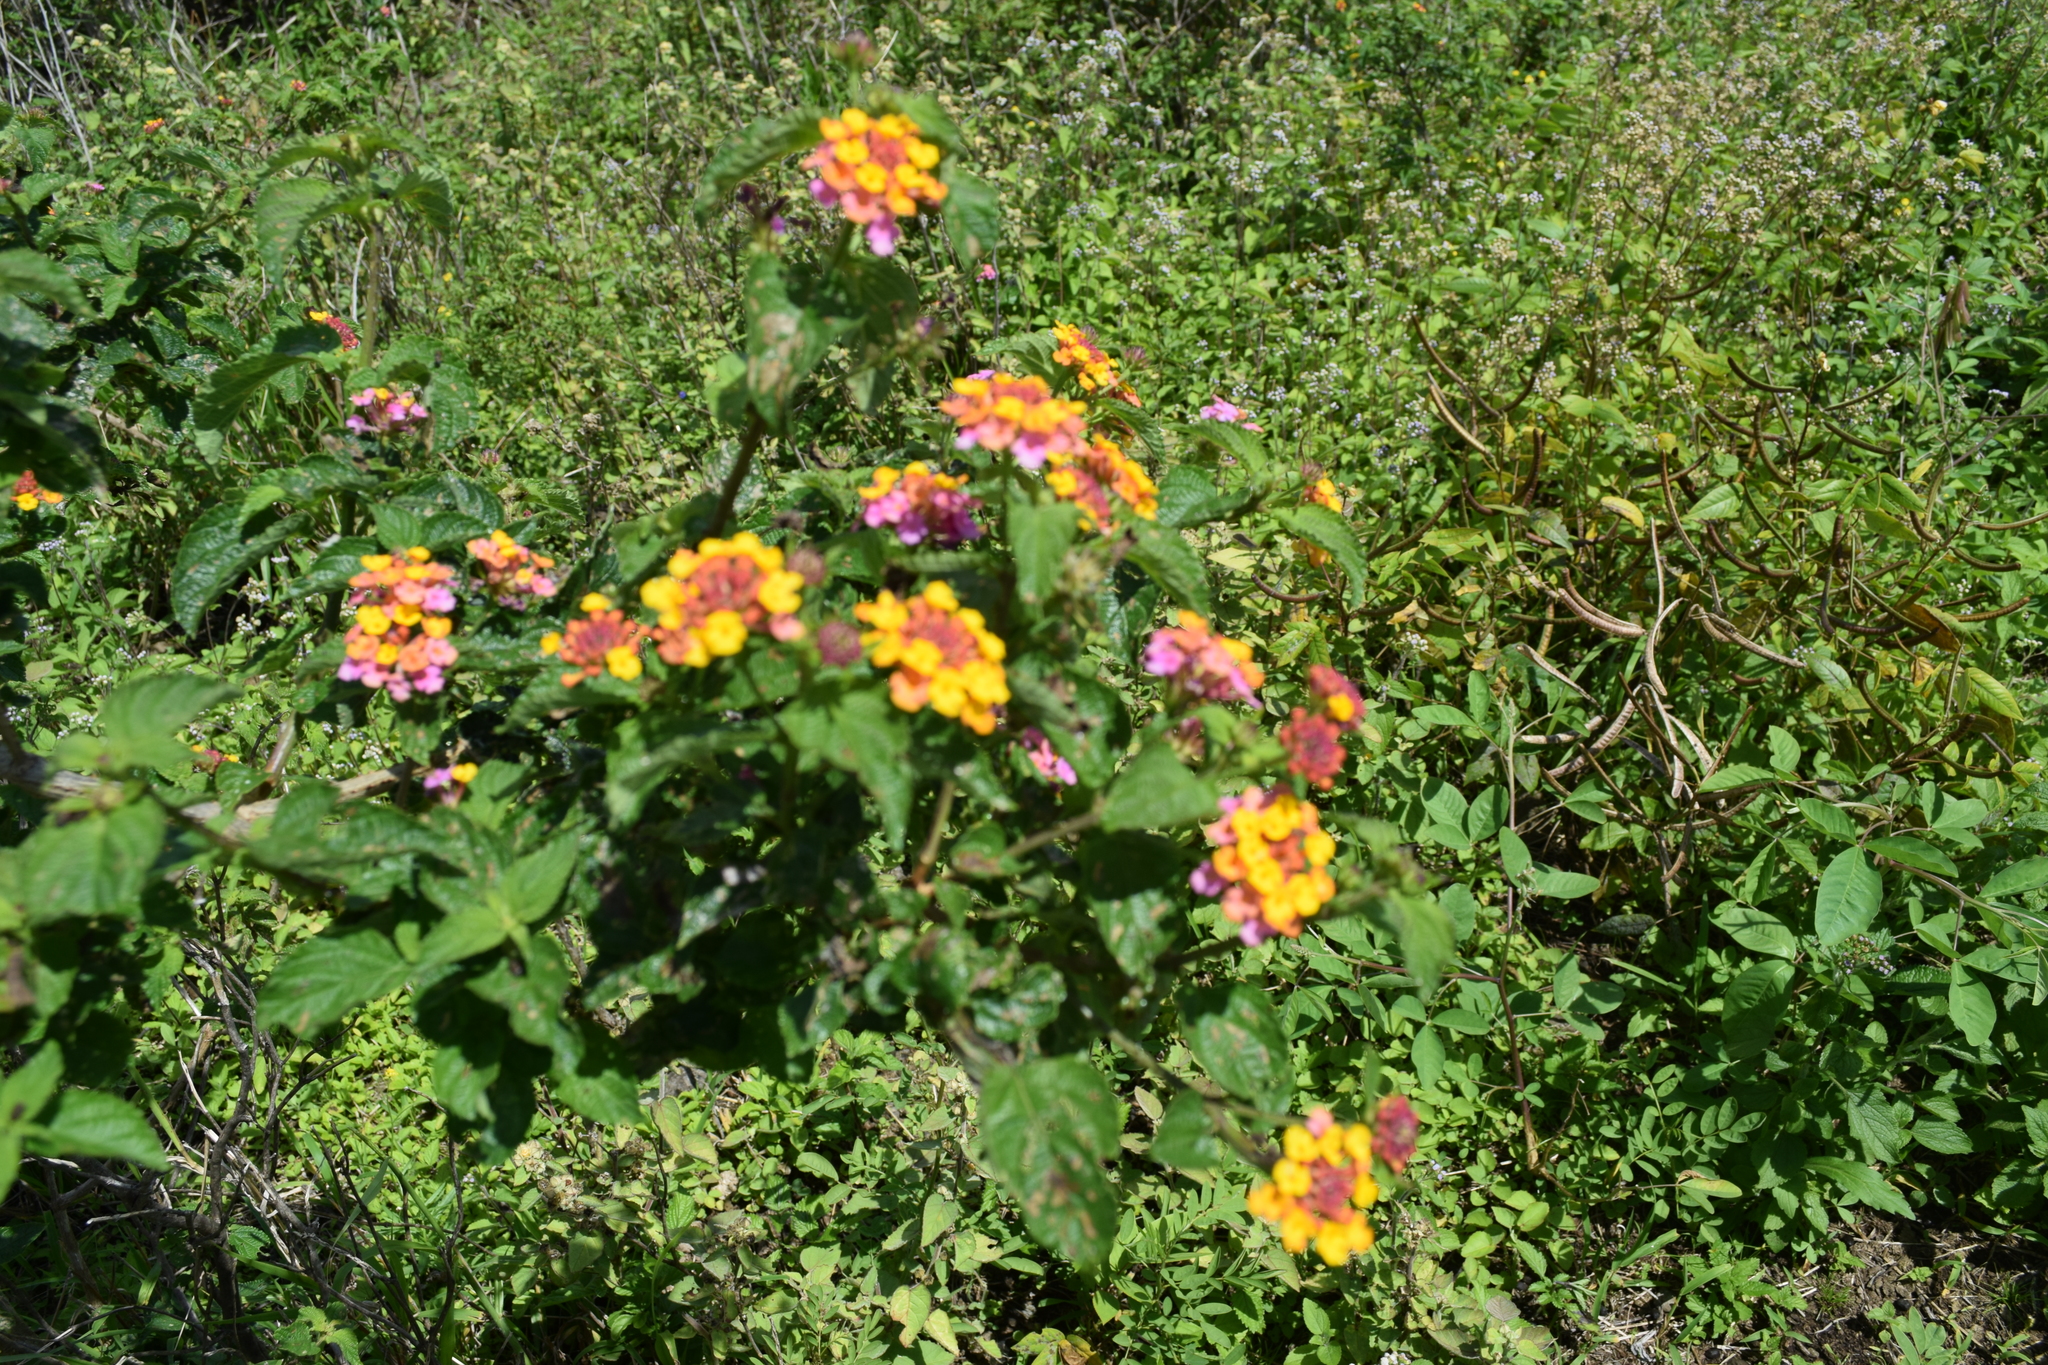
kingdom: Plantae
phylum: Tracheophyta
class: Magnoliopsida
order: Lamiales
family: Verbenaceae
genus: Lantana
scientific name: Lantana camara
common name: Lantana
